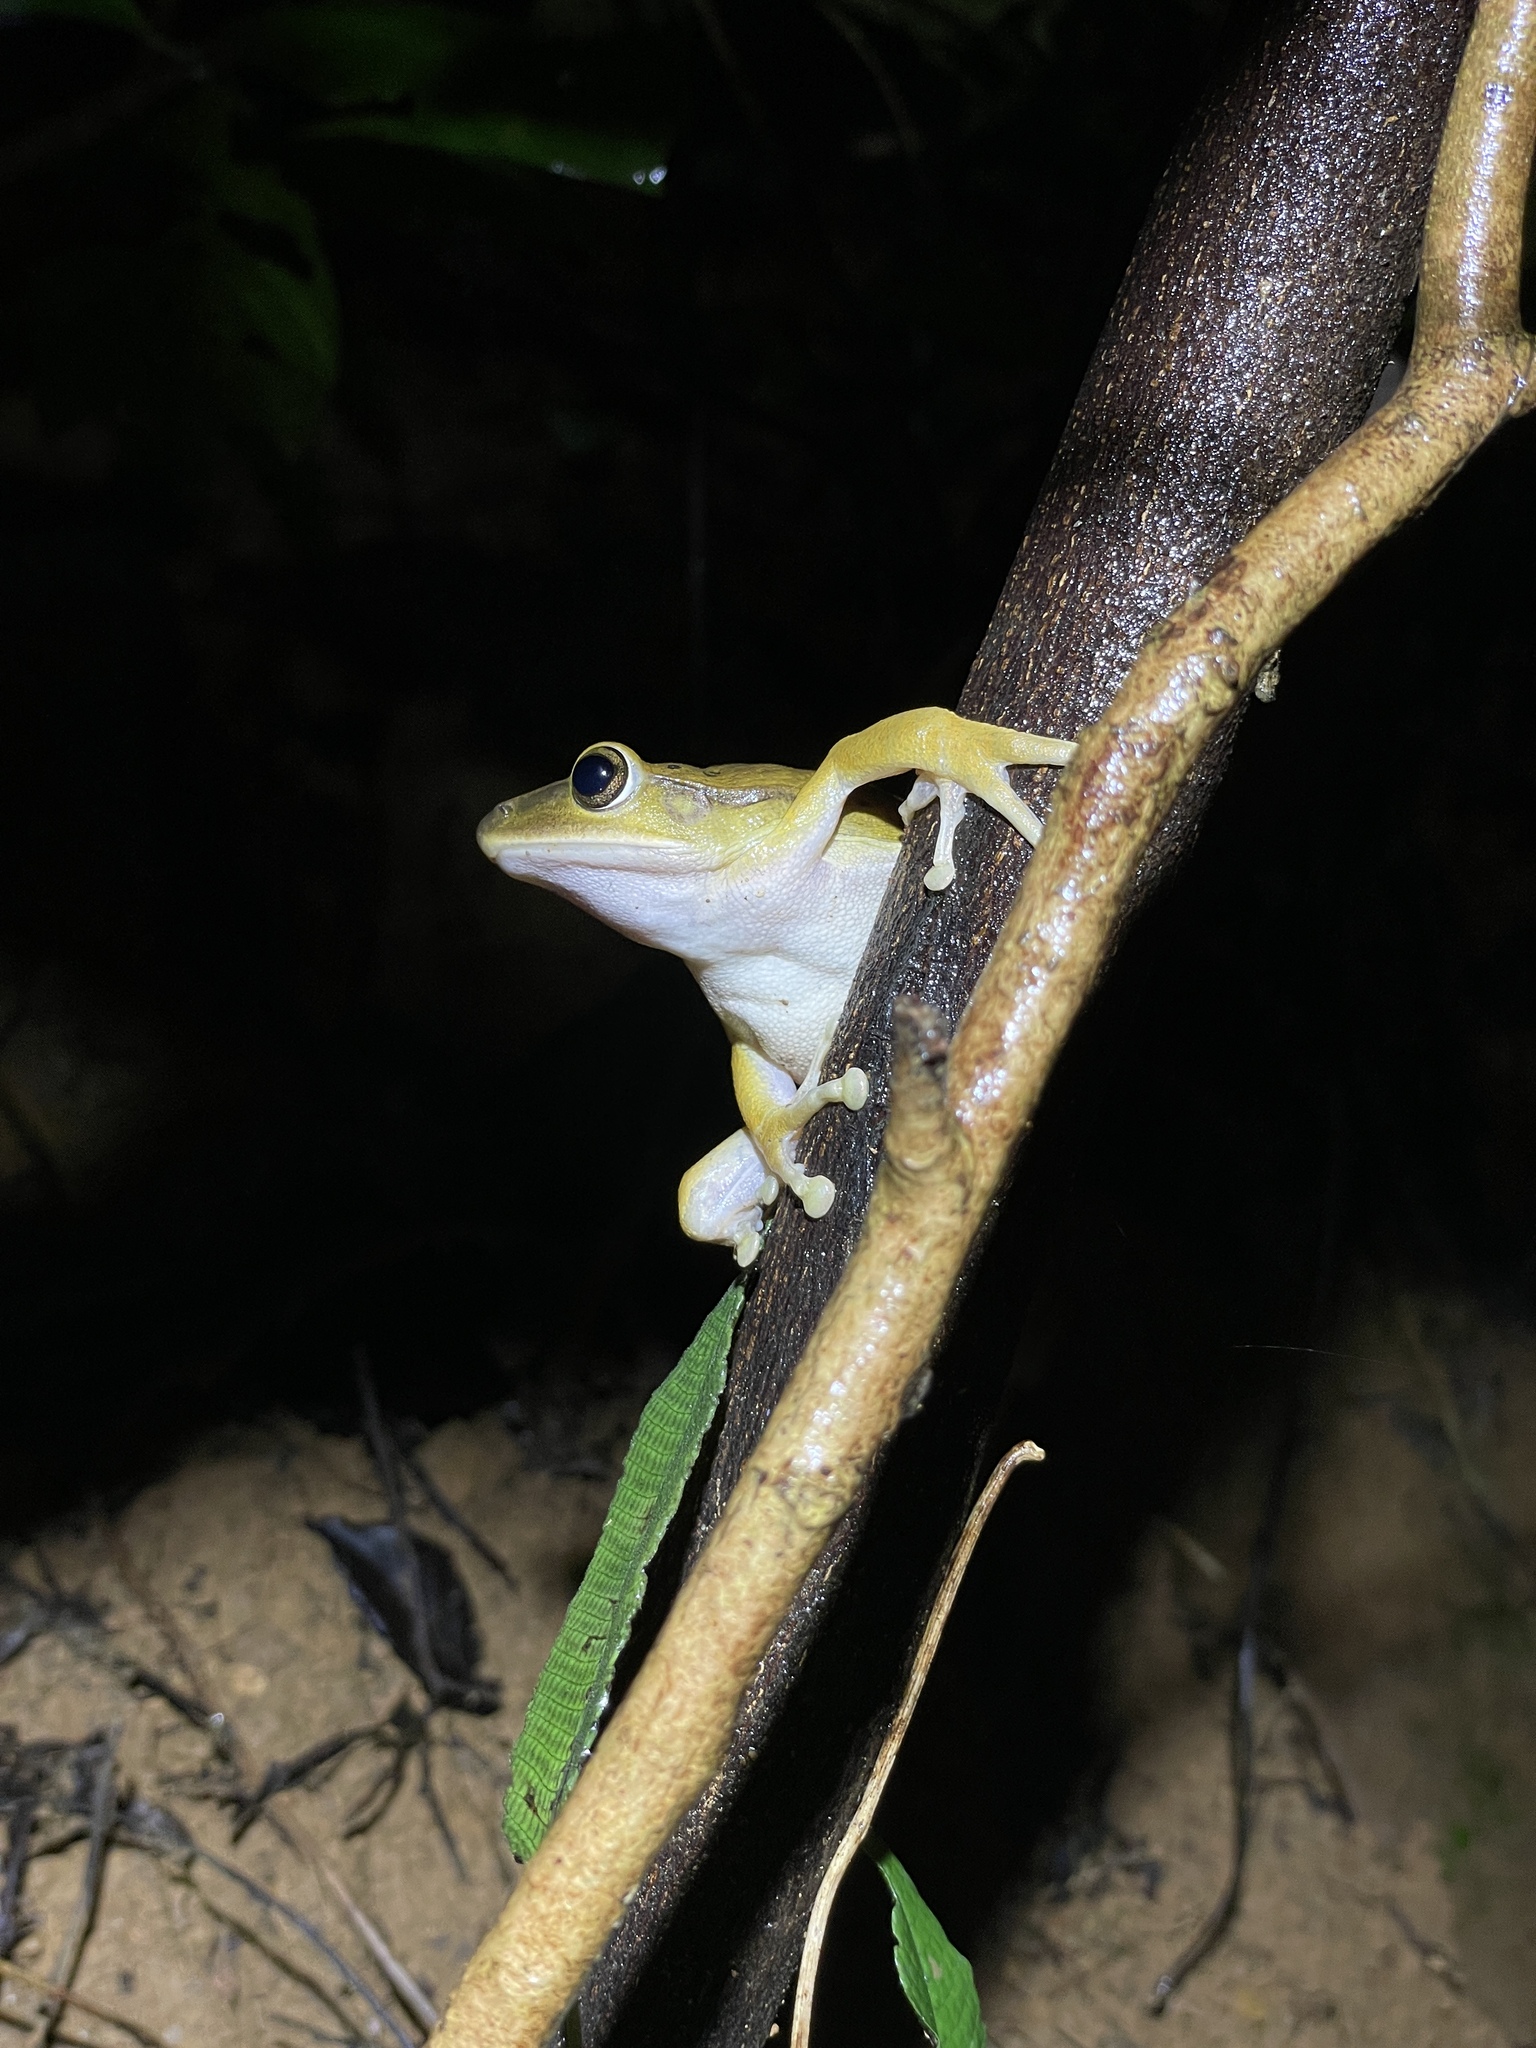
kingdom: Animalia
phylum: Chordata
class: Amphibia
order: Anura
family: Rhacophoridae
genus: Polypedates
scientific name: Polypedates megacephalus
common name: Hong kong whipping frog
